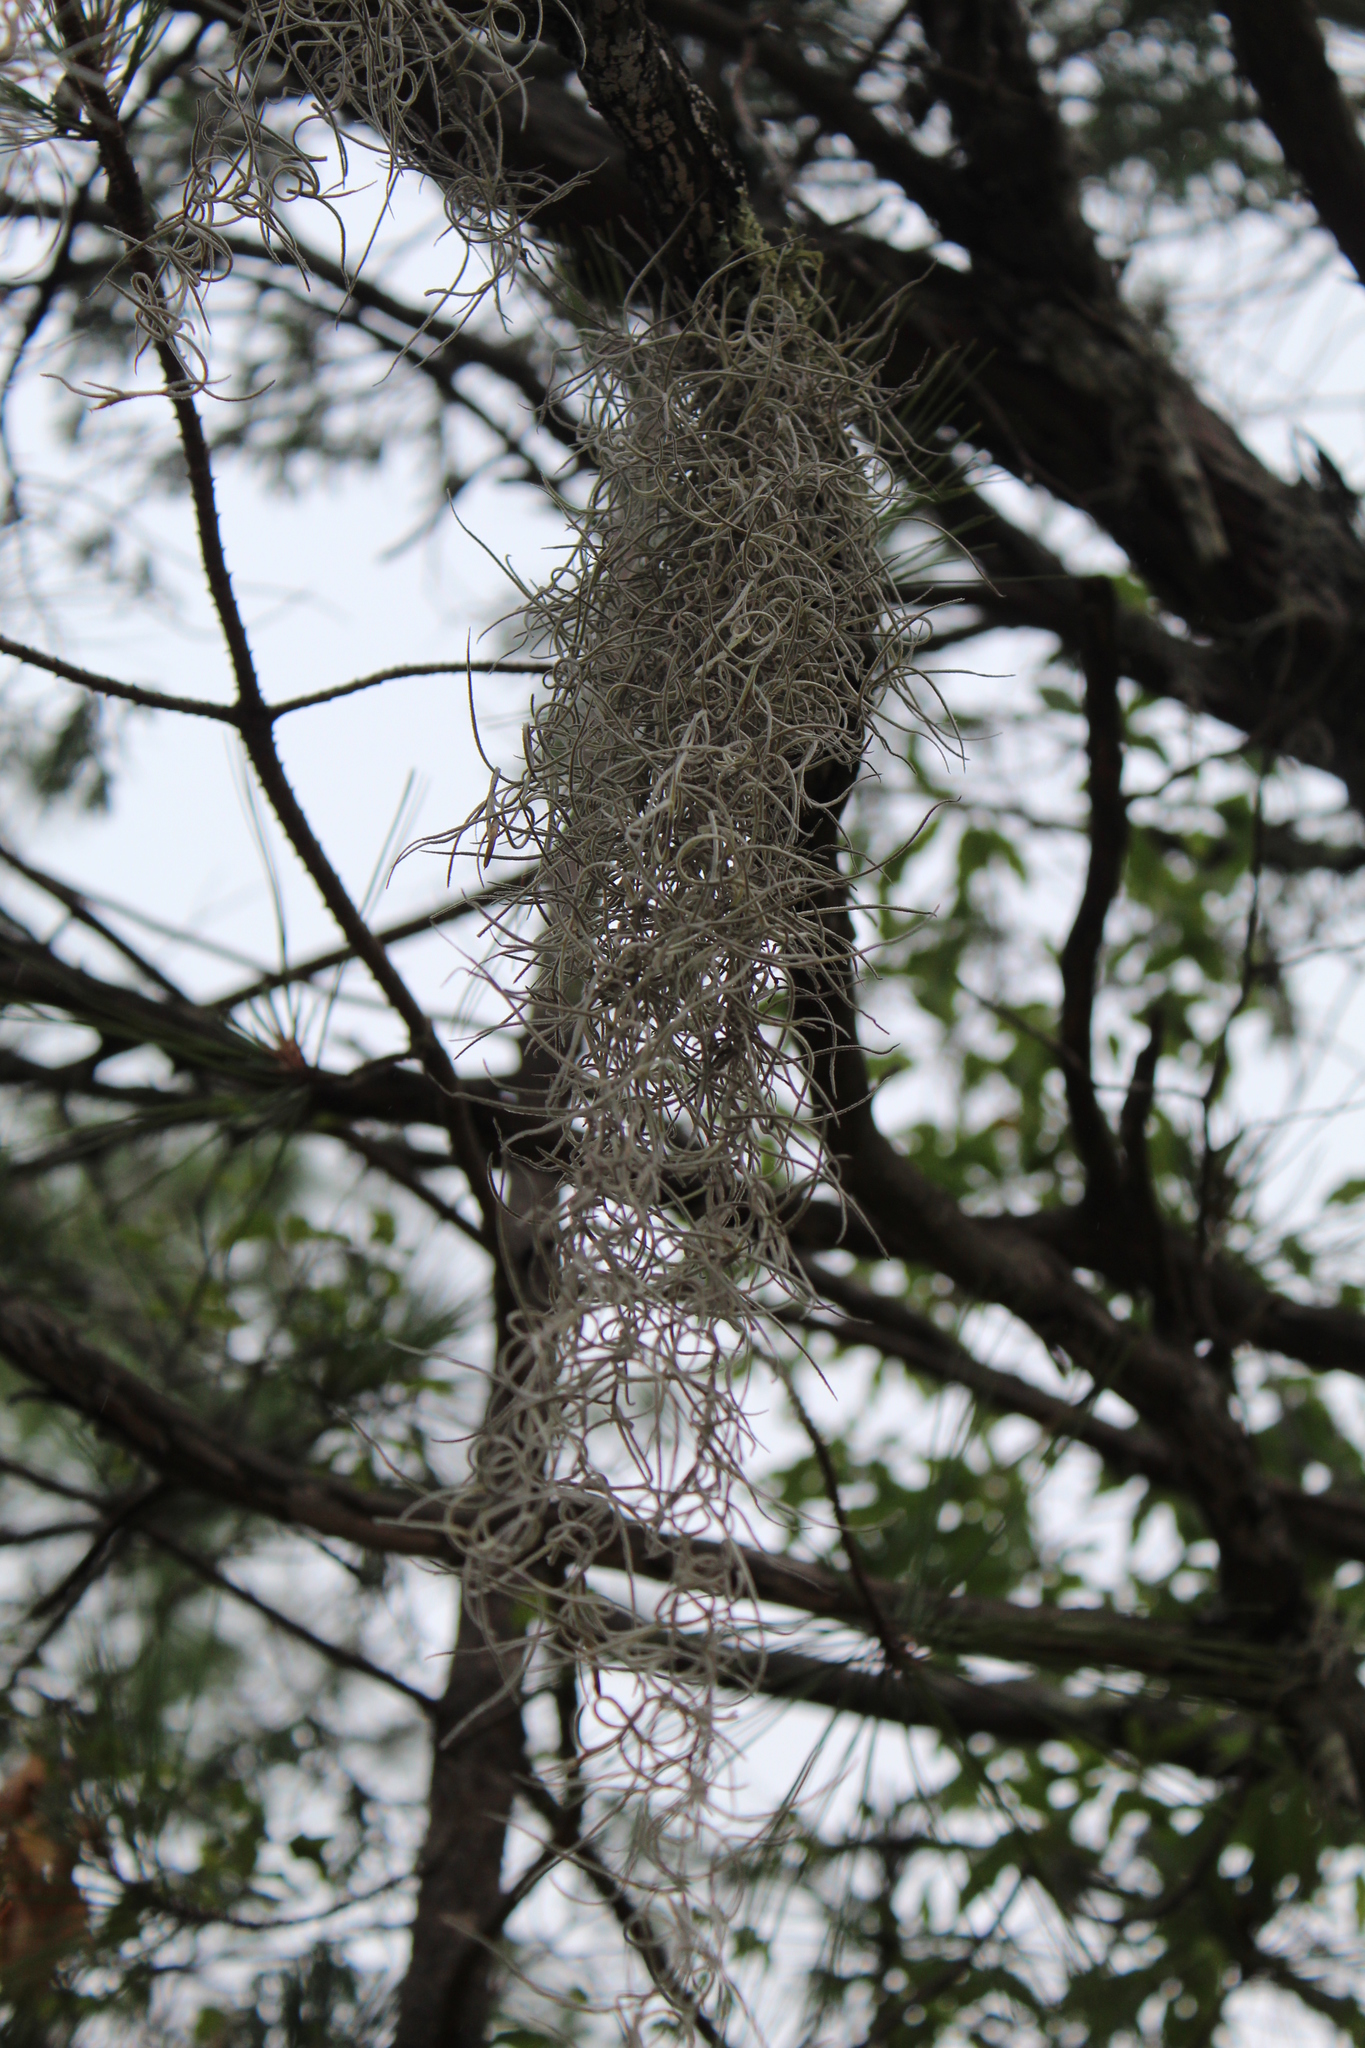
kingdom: Plantae
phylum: Tracheophyta
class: Liliopsida
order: Poales
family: Bromeliaceae
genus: Tillandsia
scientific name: Tillandsia usneoides
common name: Spanish moss
